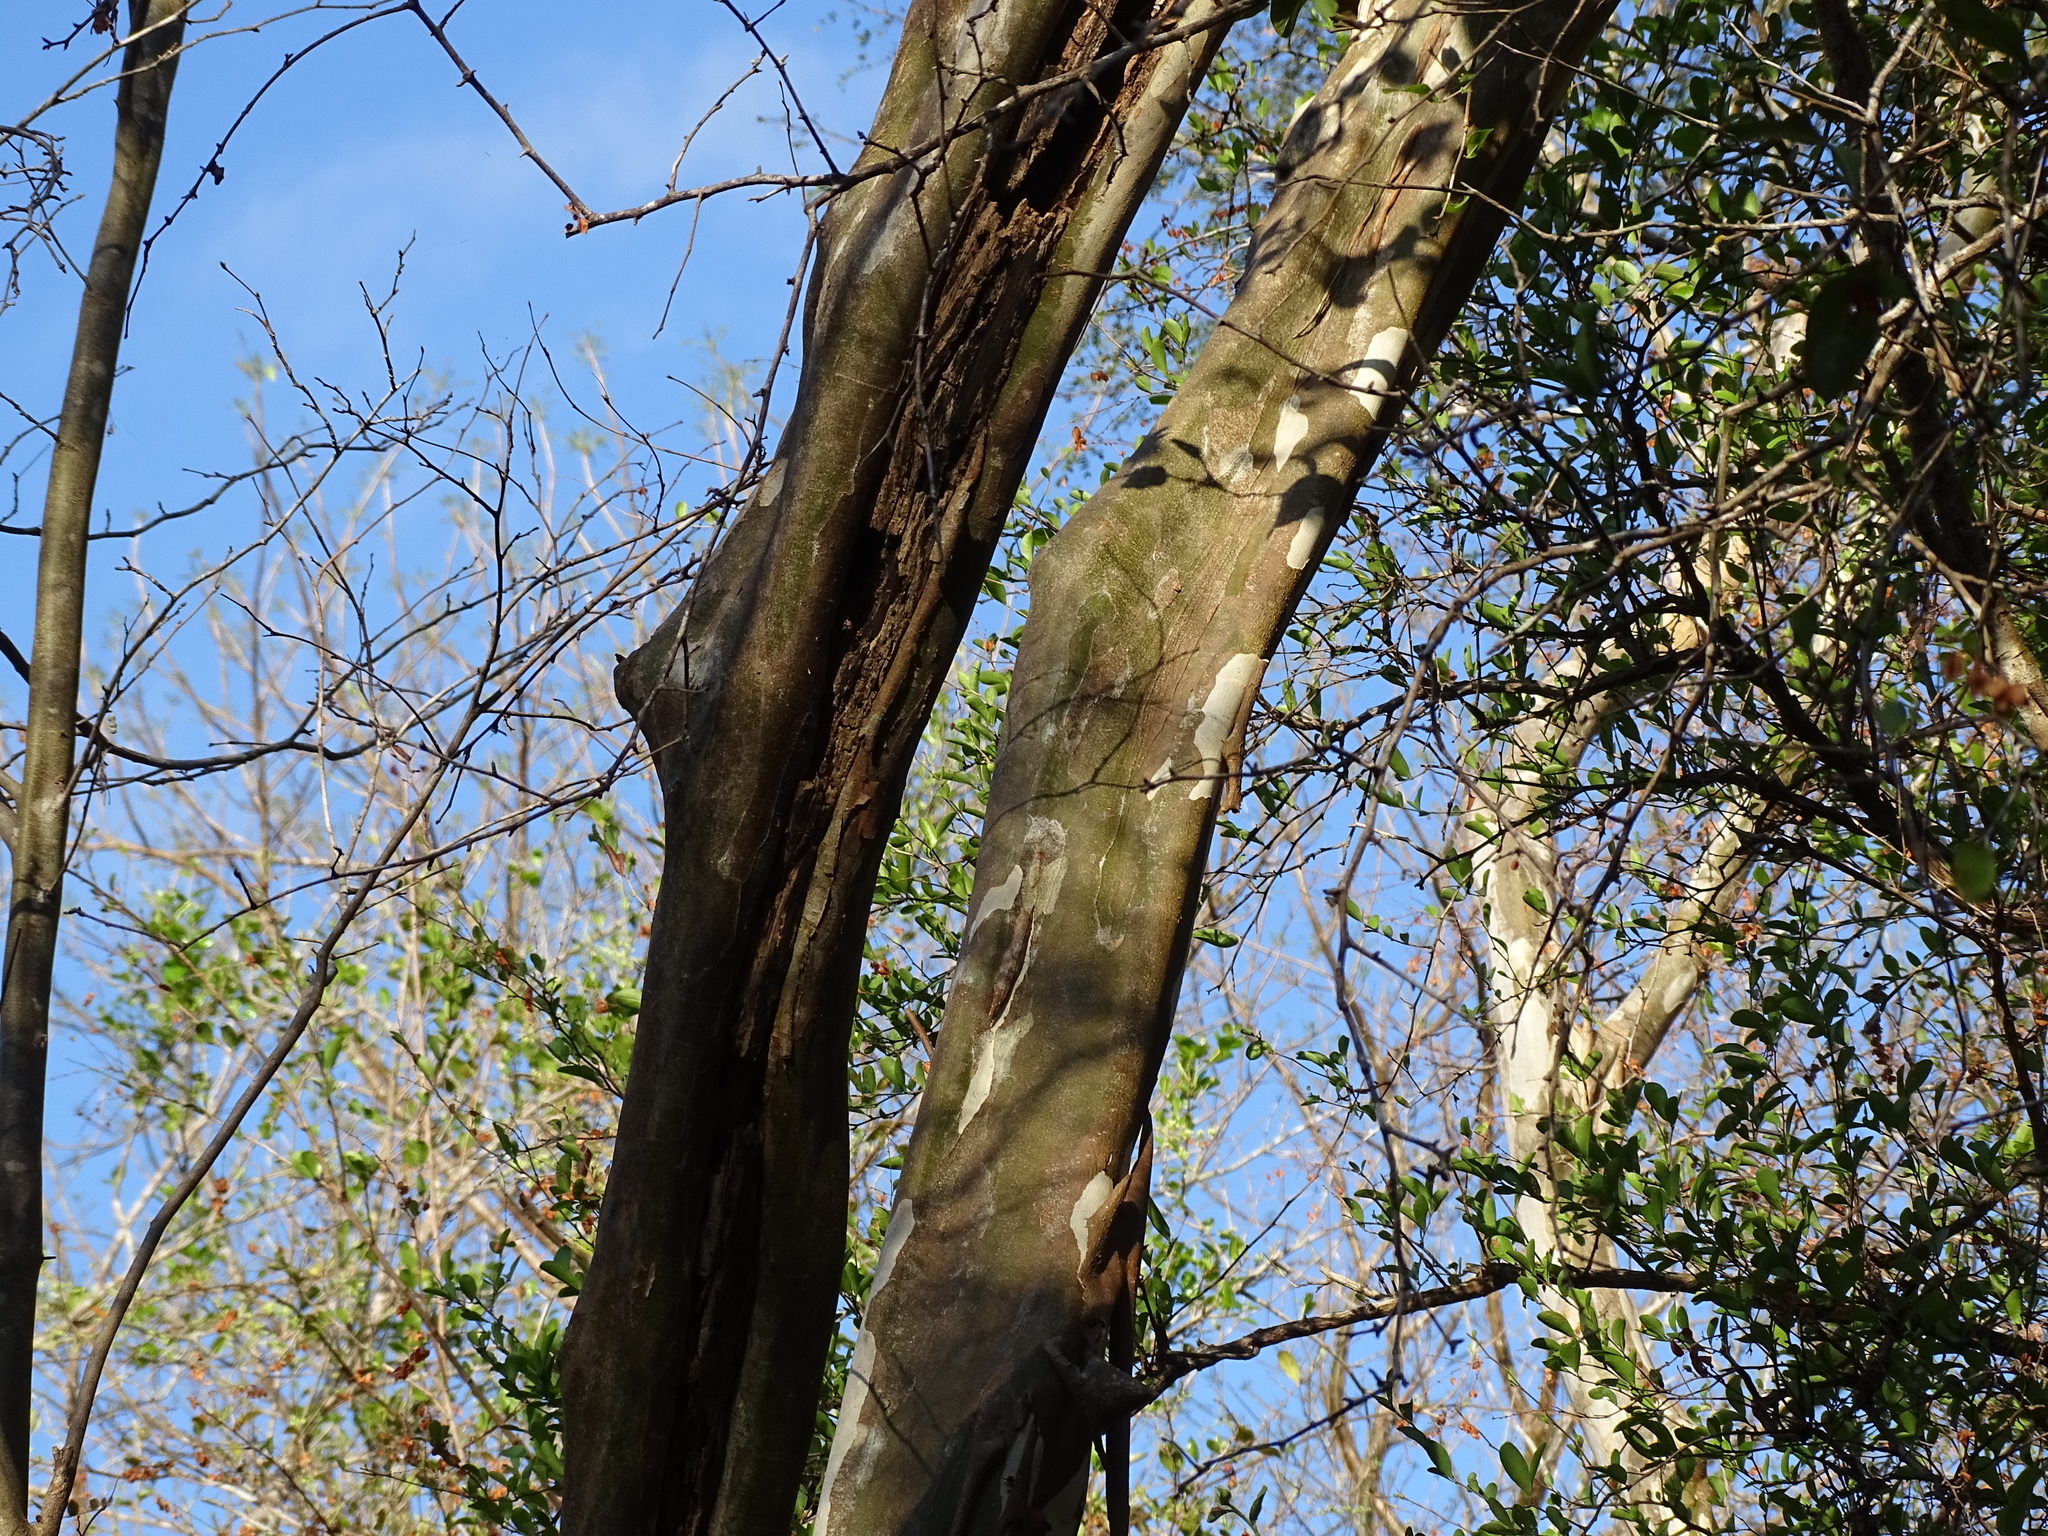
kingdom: Plantae
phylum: Tracheophyta
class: Magnoliopsida
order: Fabales
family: Fabaceae
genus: Chloroleucon
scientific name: Chloroleucon mangense
